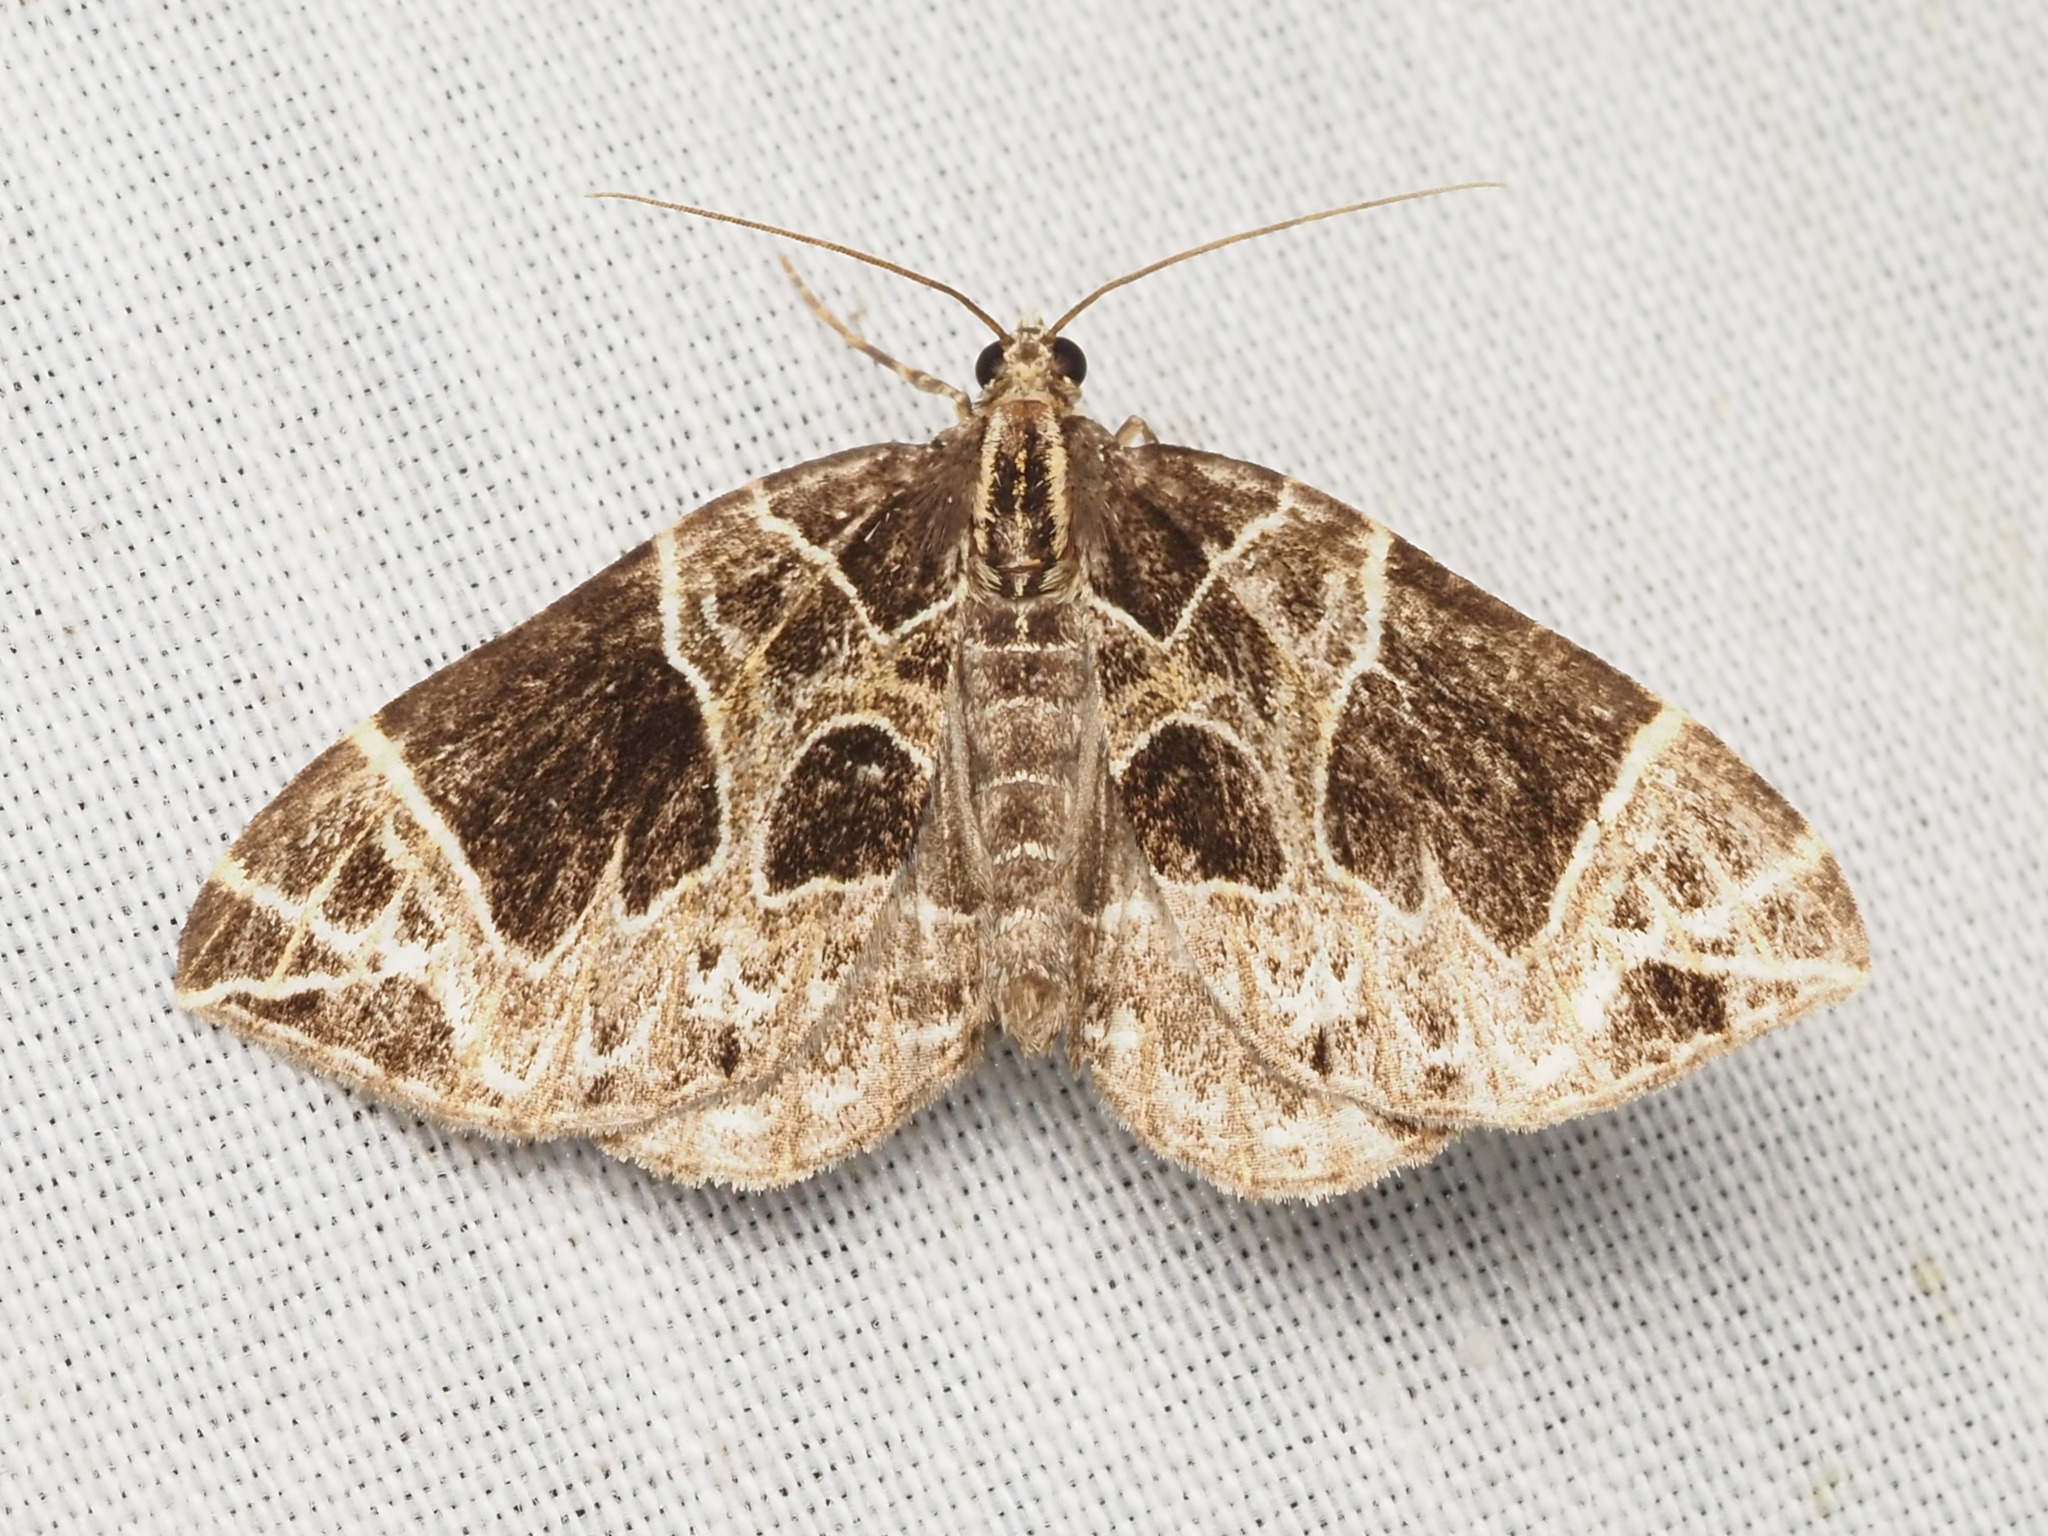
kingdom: Animalia
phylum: Arthropoda
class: Insecta
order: Lepidoptera
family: Geometridae
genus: Ecliptopera
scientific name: Ecliptopera atricolorata
